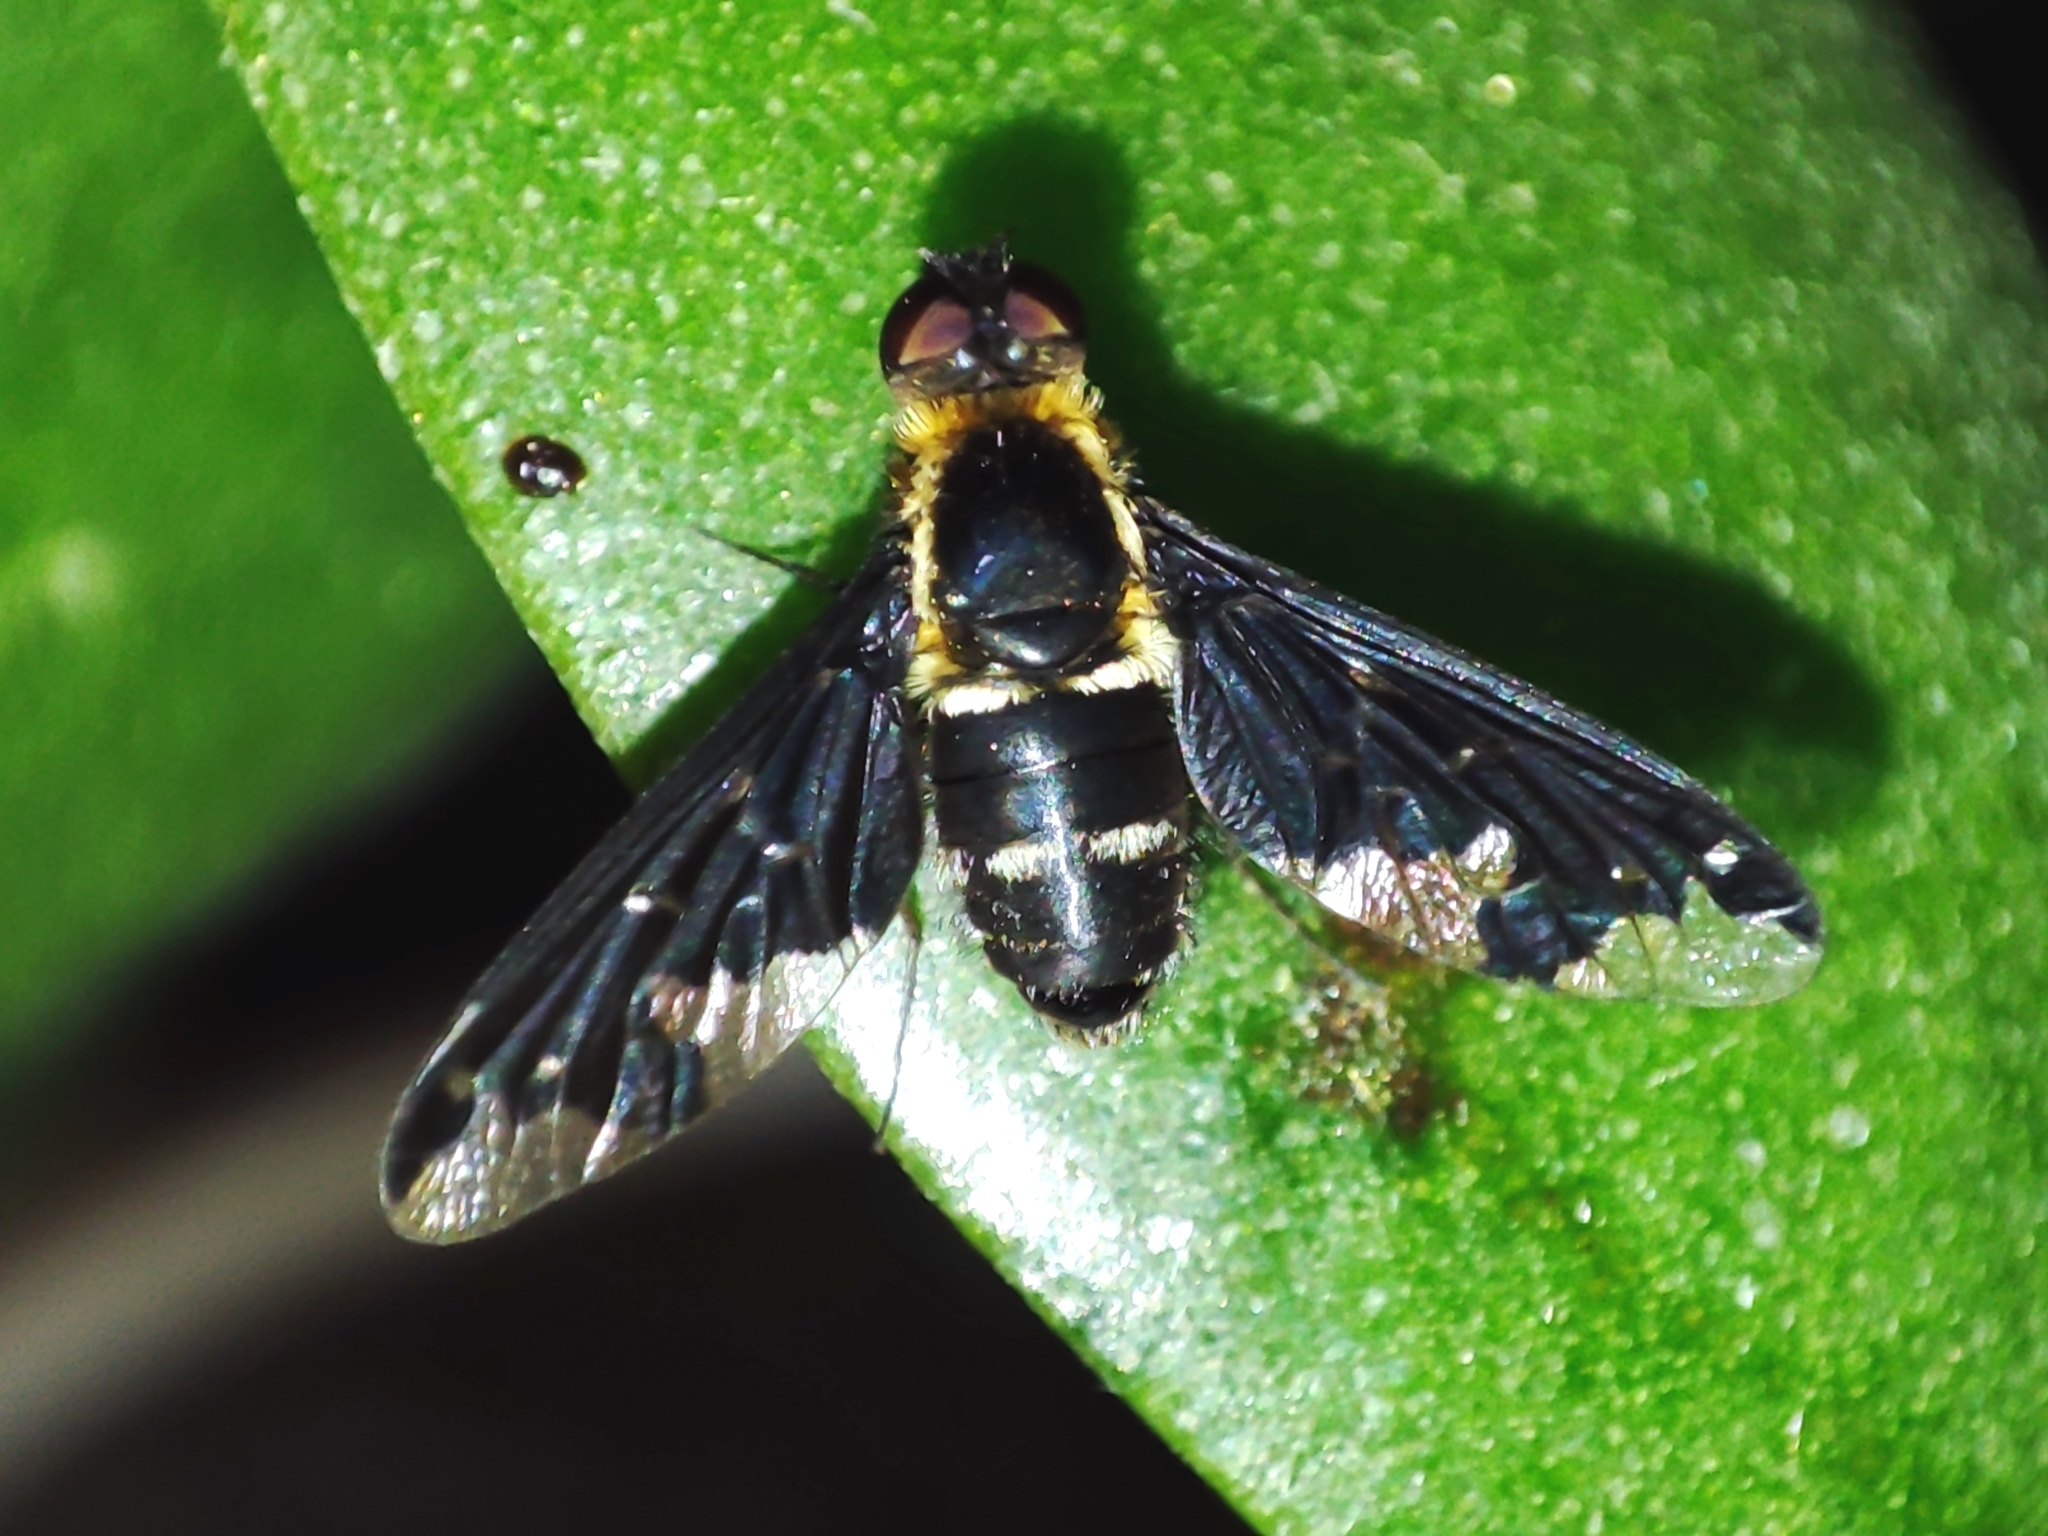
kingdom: Animalia
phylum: Arthropoda
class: Insecta
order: Diptera
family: Bombyliidae
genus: Hemipenthes
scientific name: Hemipenthes maura
